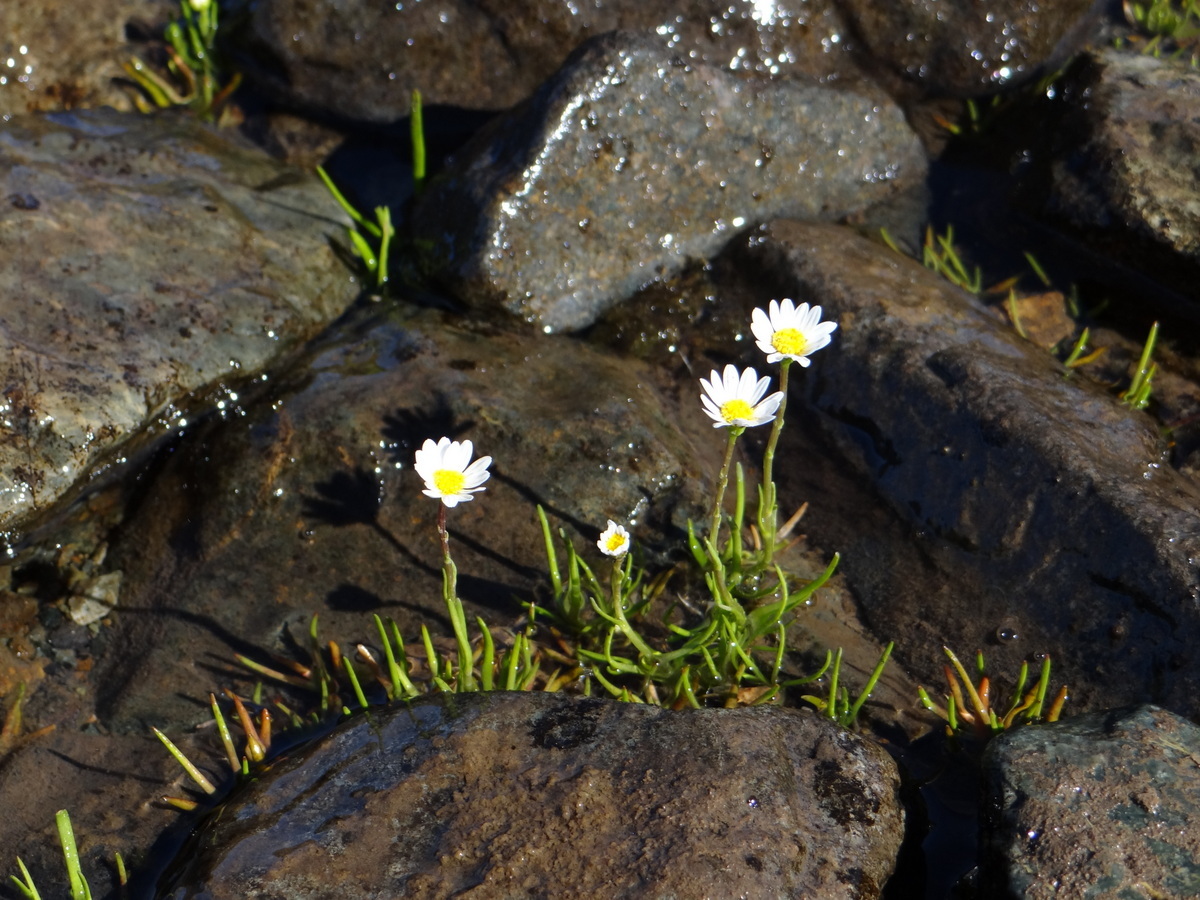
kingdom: Plantae
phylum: Tracheophyta
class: Magnoliopsida
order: Asterales
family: Asteraceae
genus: Haplosticha
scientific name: Haplosticha zosterifolia
